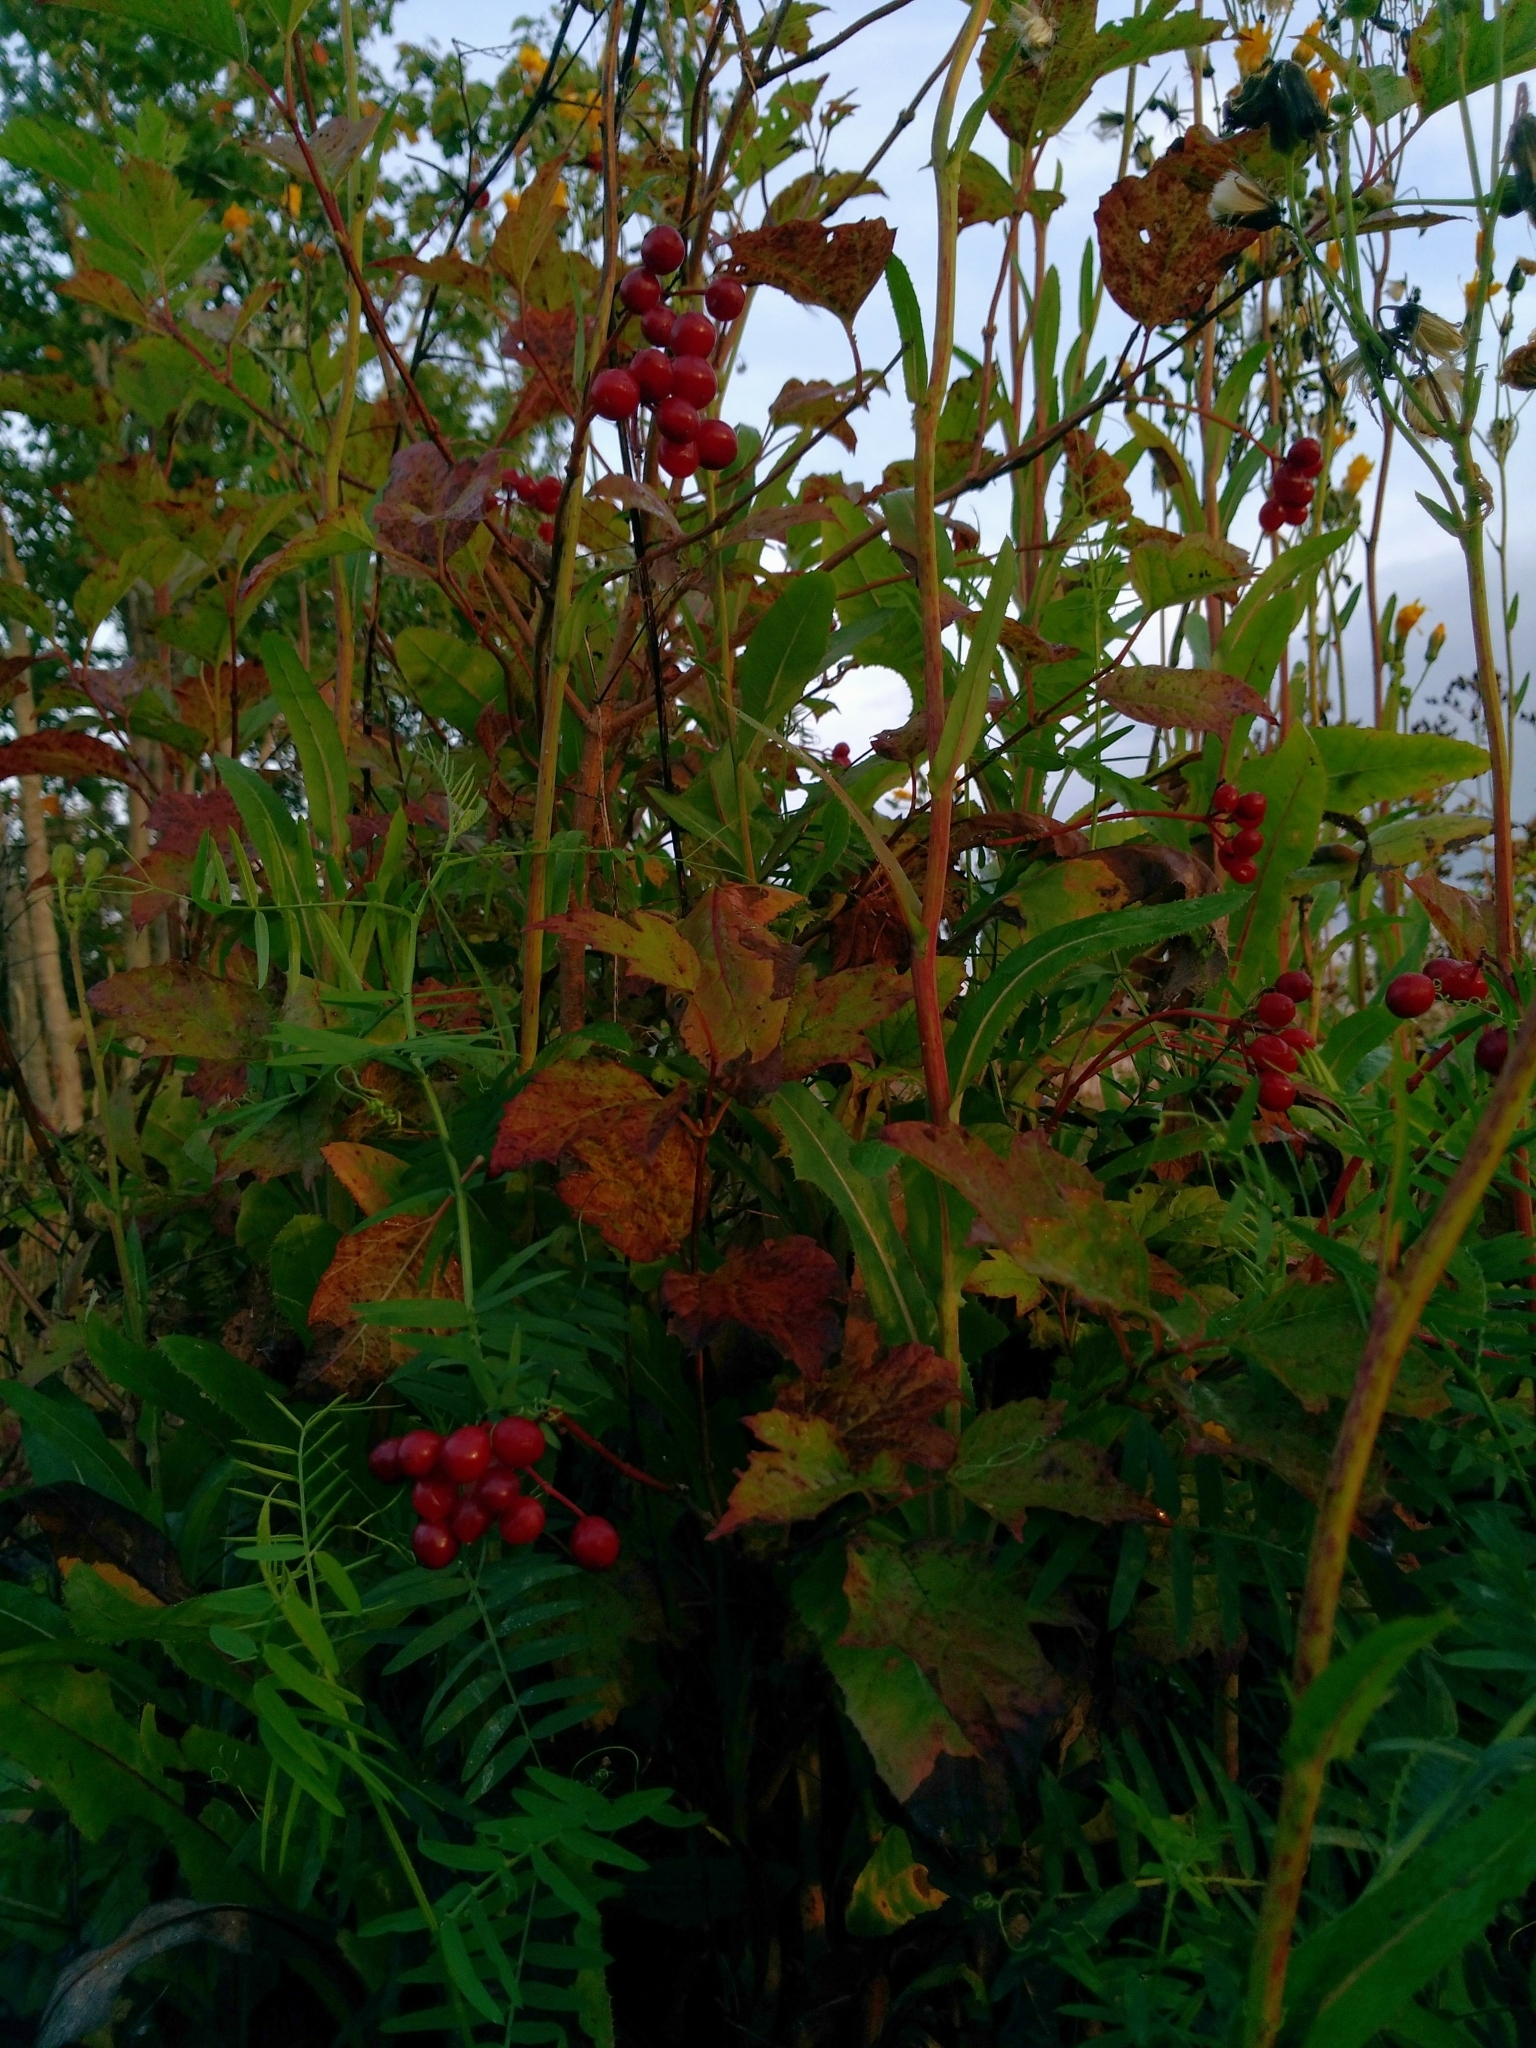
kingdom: Plantae
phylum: Tracheophyta
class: Magnoliopsida
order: Dipsacales
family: Viburnaceae
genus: Viburnum
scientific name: Viburnum trilobum
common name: American cranberrybush
